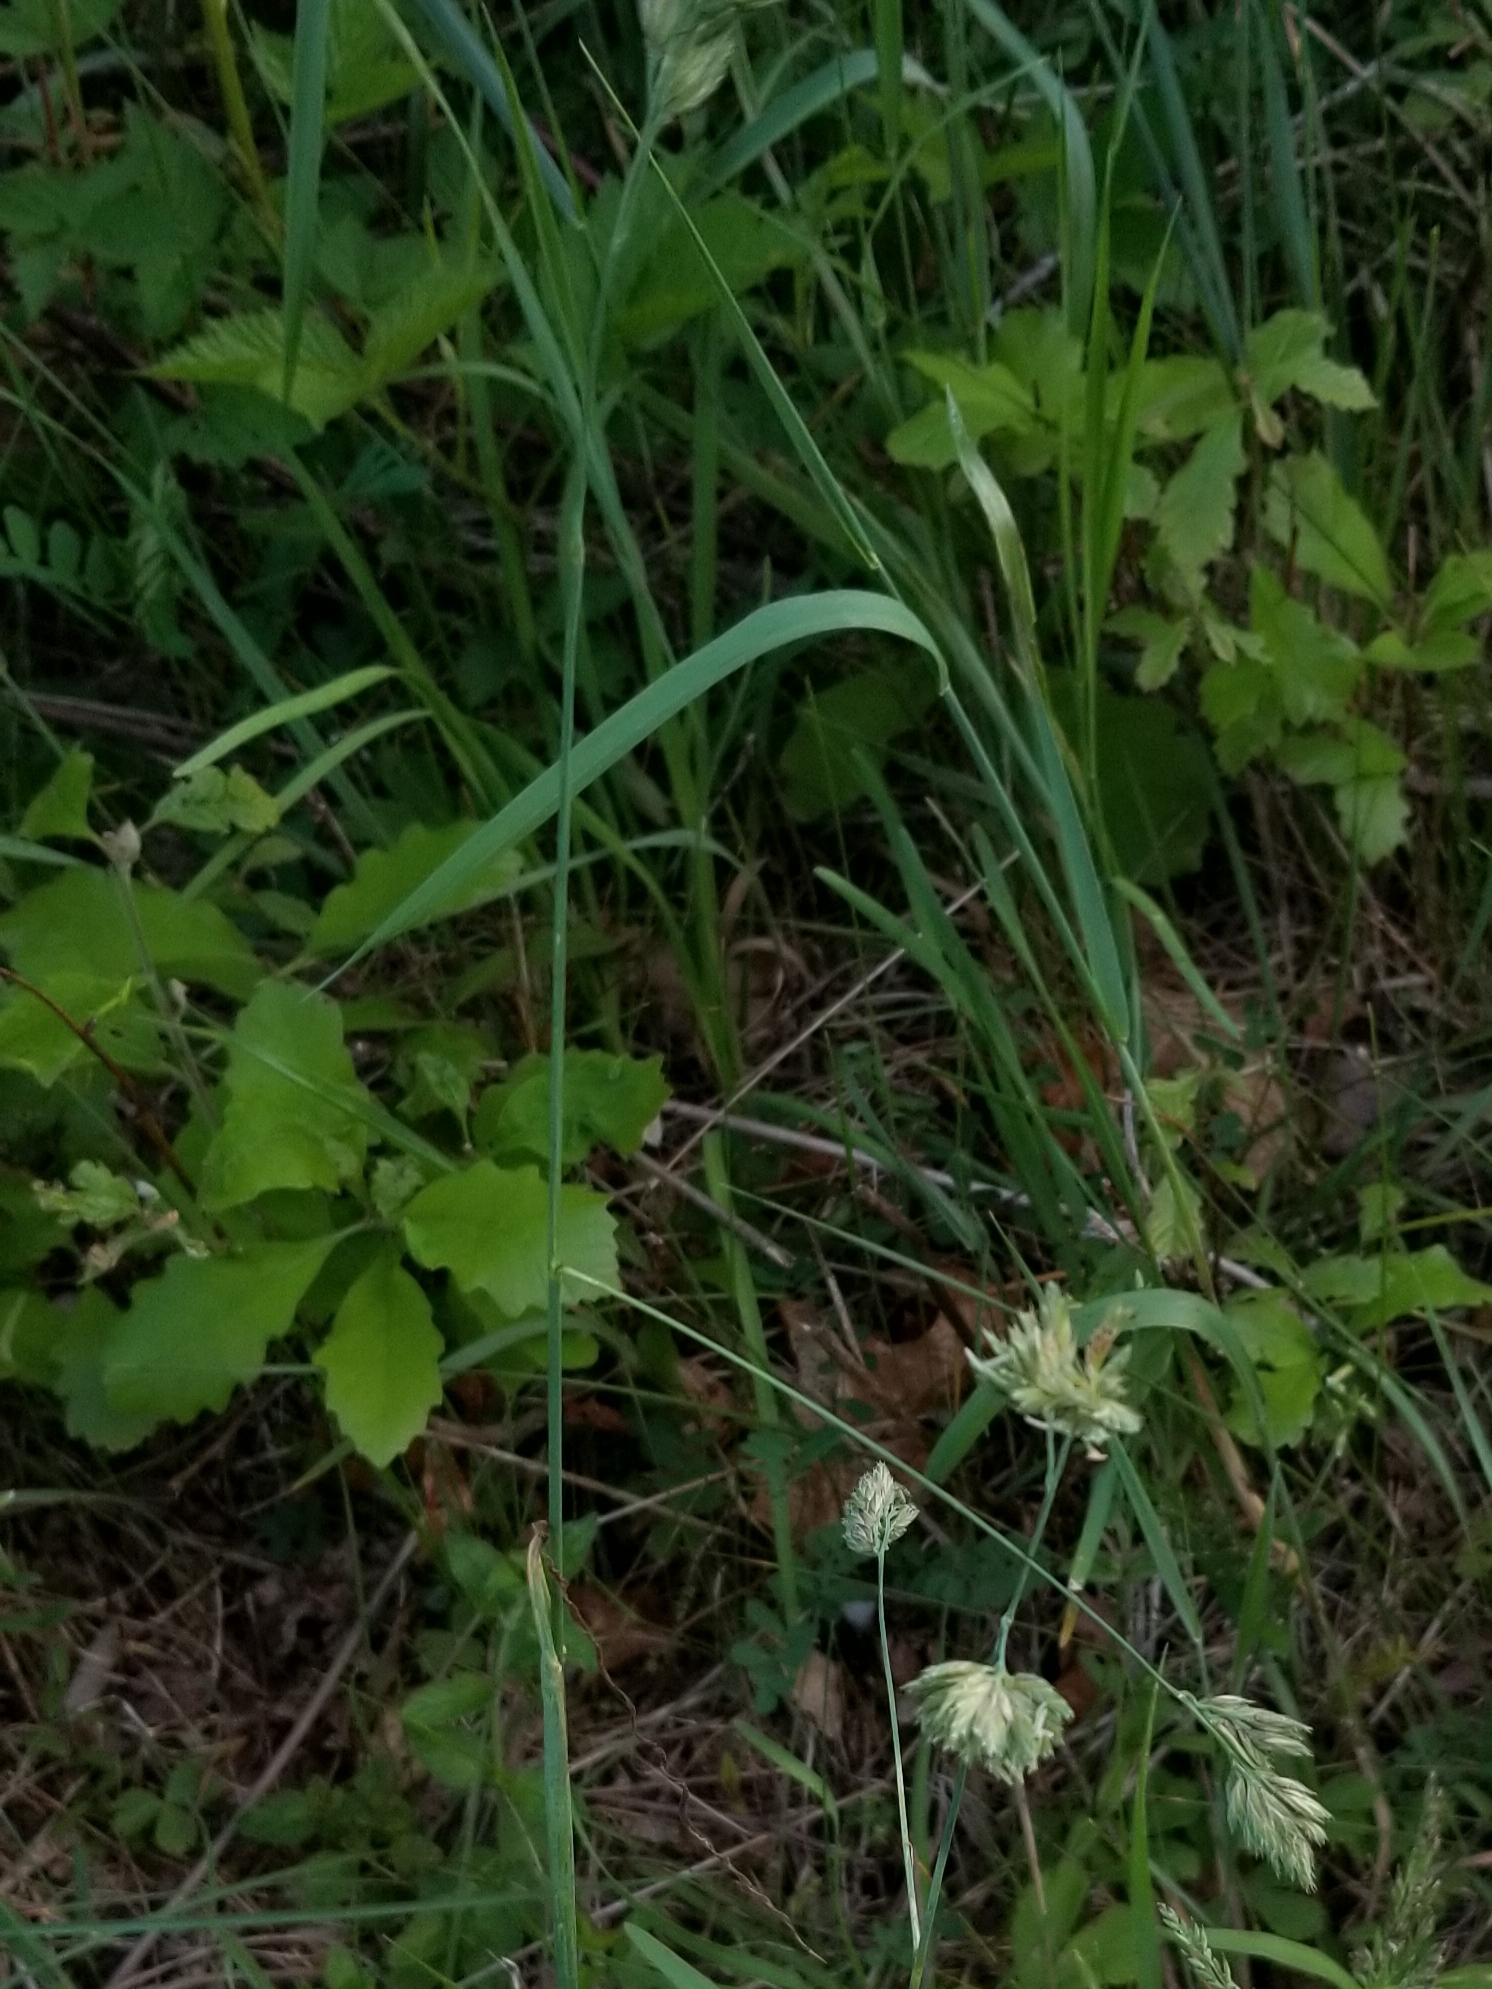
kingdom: Plantae
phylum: Tracheophyta
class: Liliopsida
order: Poales
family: Poaceae
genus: Dactylis
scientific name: Dactylis glomerata
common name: Orchardgrass
